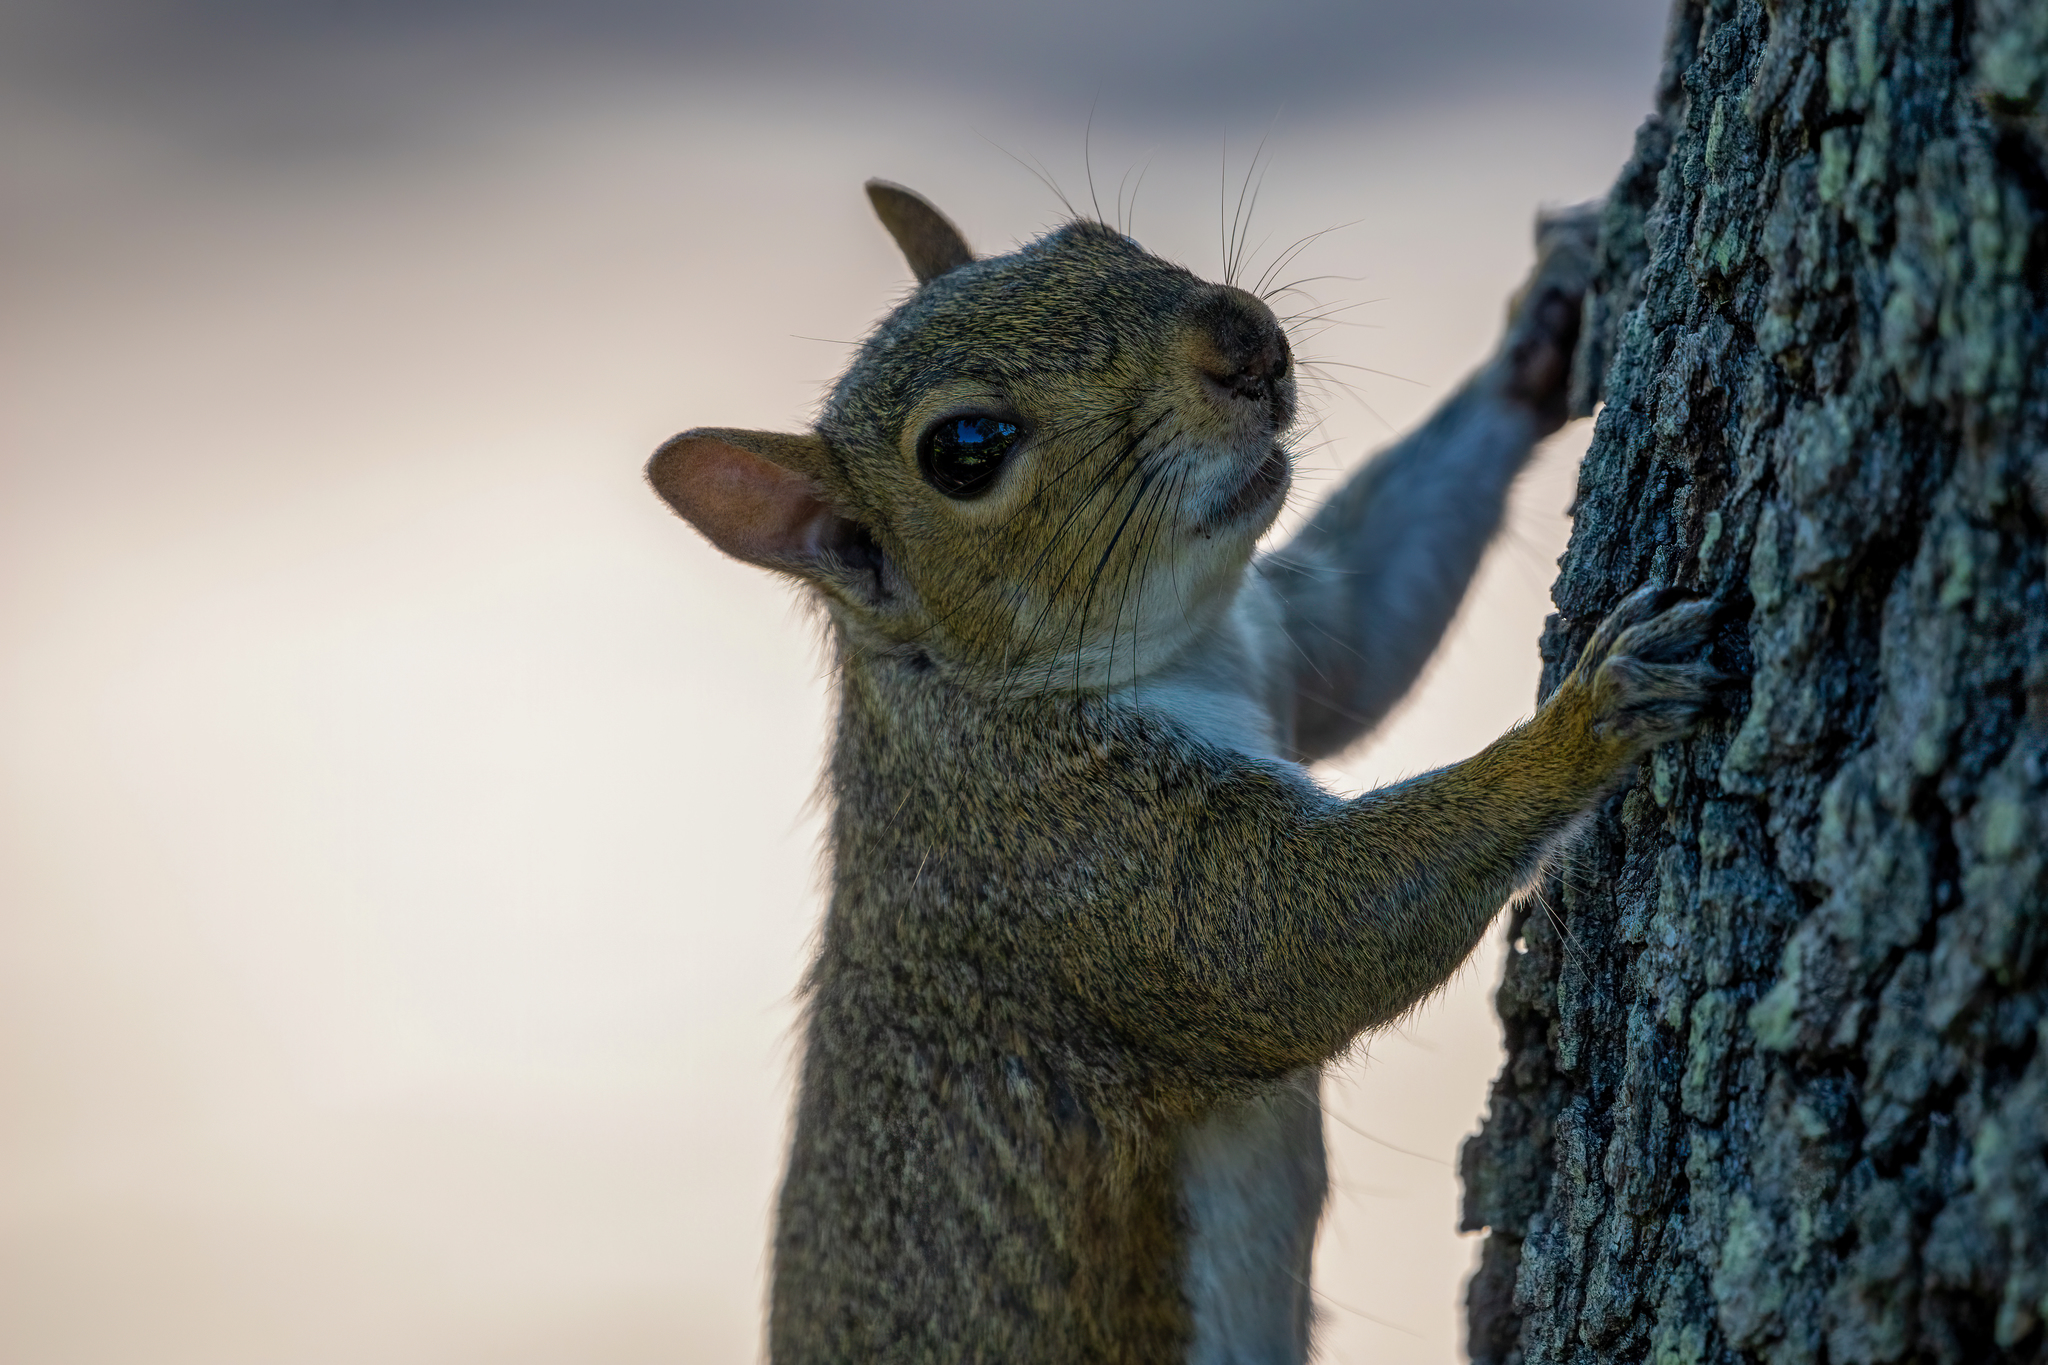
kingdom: Animalia
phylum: Chordata
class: Mammalia
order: Rodentia
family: Sciuridae
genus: Sciurus
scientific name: Sciurus carolinensis
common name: Eastern gray squirrel
